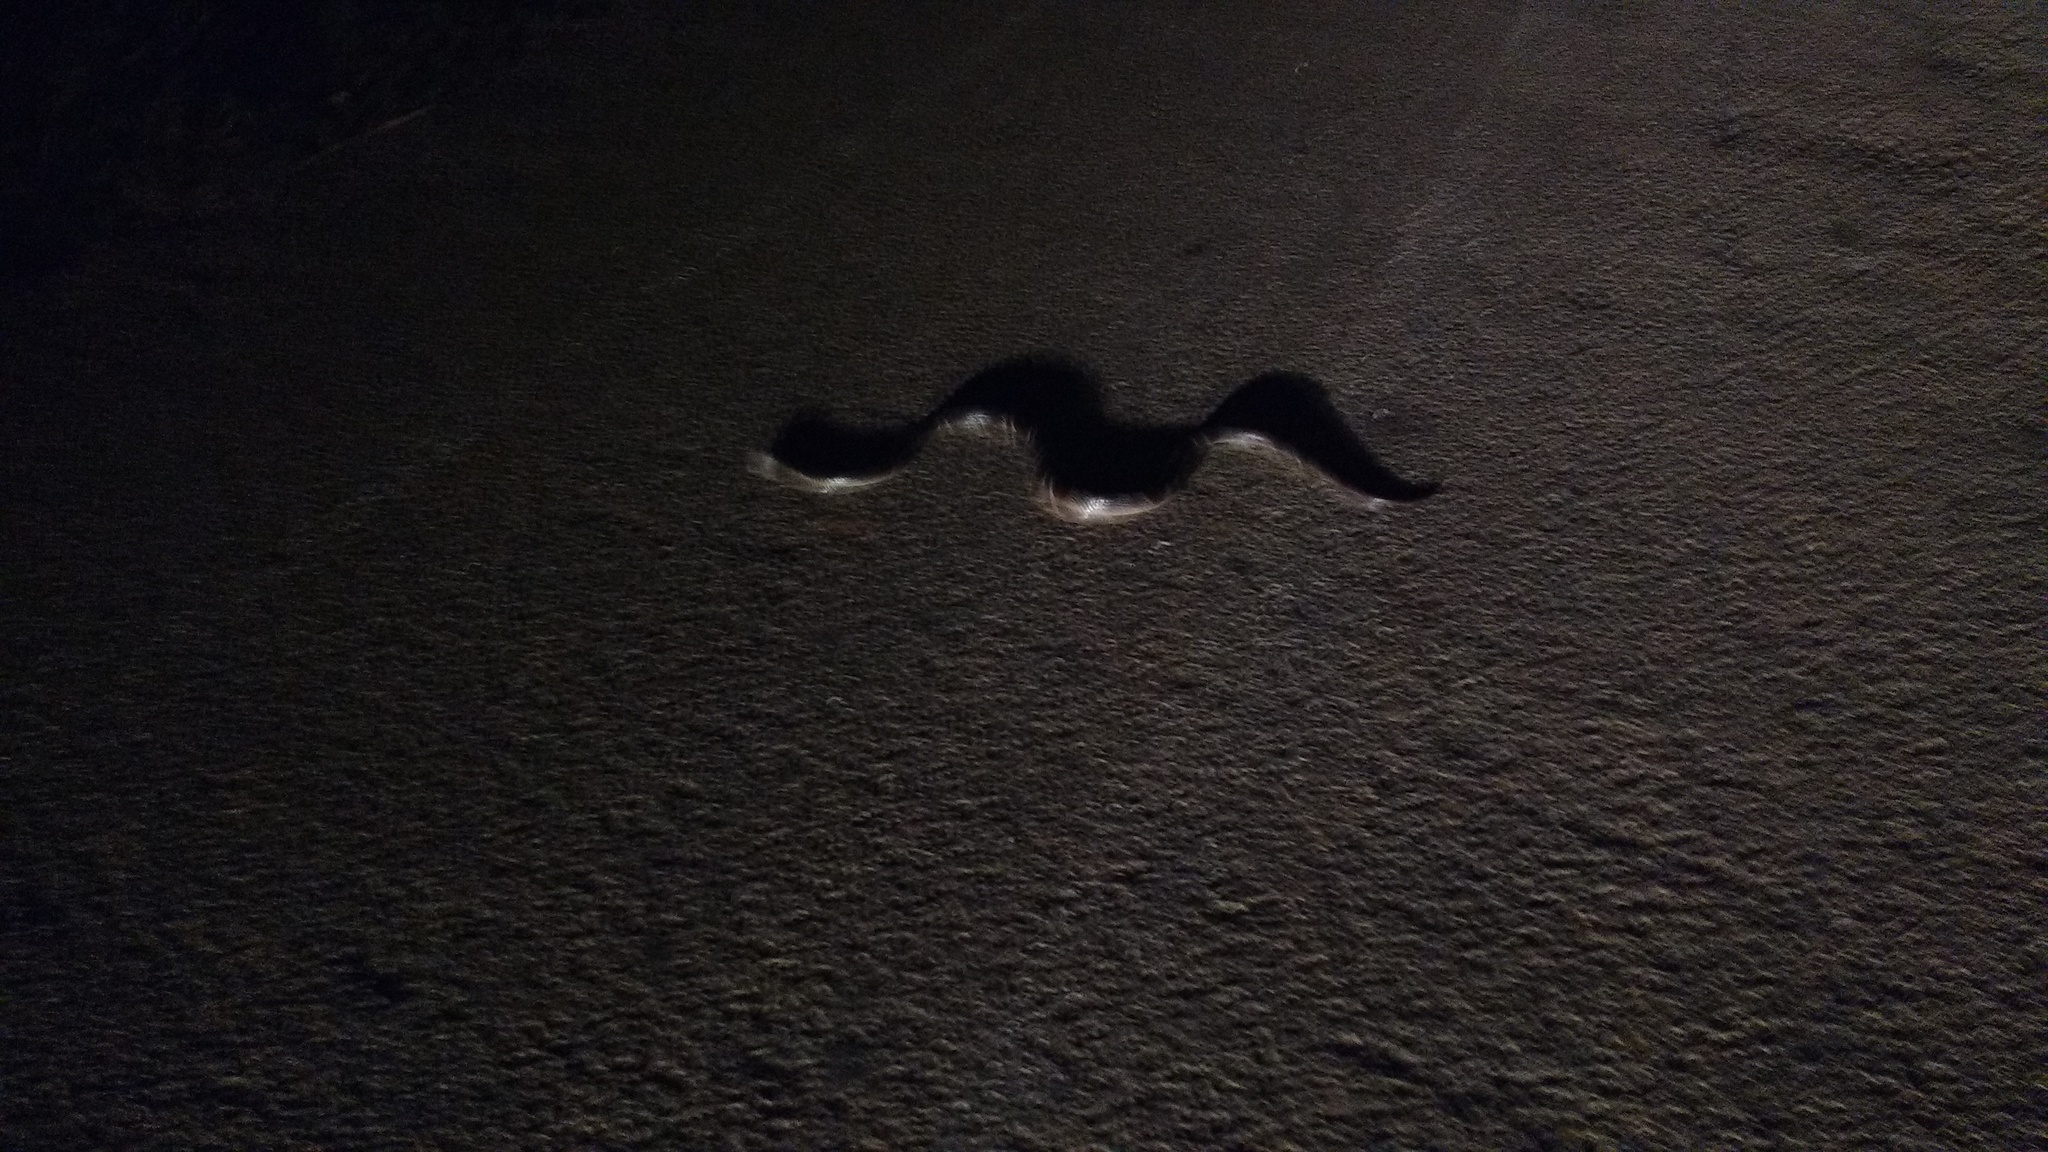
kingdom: Animalia
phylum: Chordata
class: Squamata
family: Elapidae
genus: Bungarus
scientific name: Bungarus caeruleus
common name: Common krait
